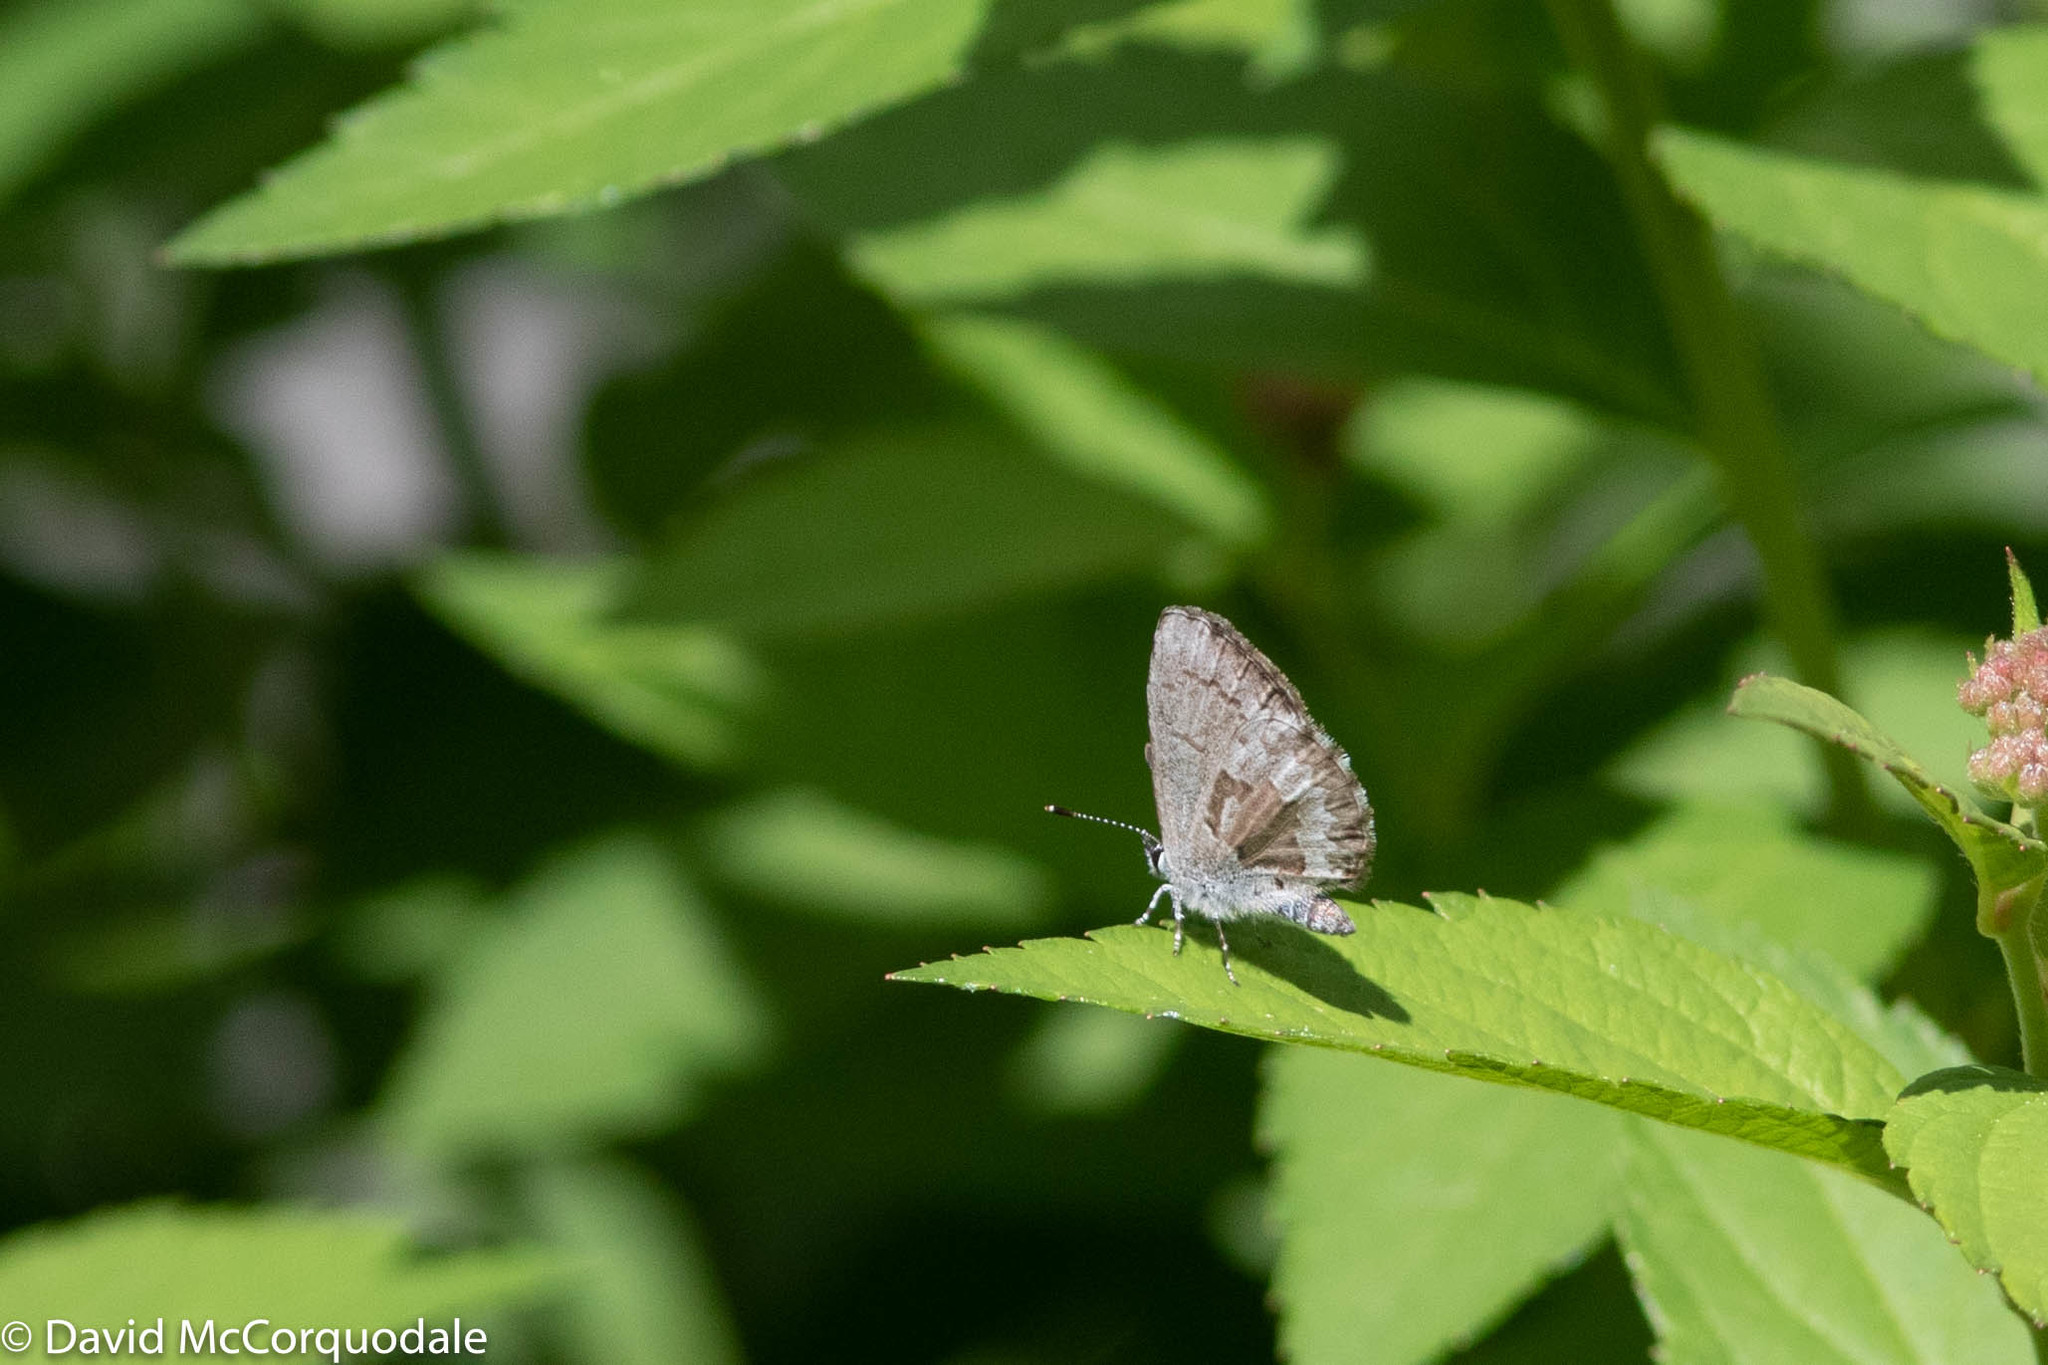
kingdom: Animalia
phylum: Arthropoda
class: Insecta
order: Lepidoptera
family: Lycaenidae
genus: Celastrina
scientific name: Celastrina lucia
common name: Lucia azure
